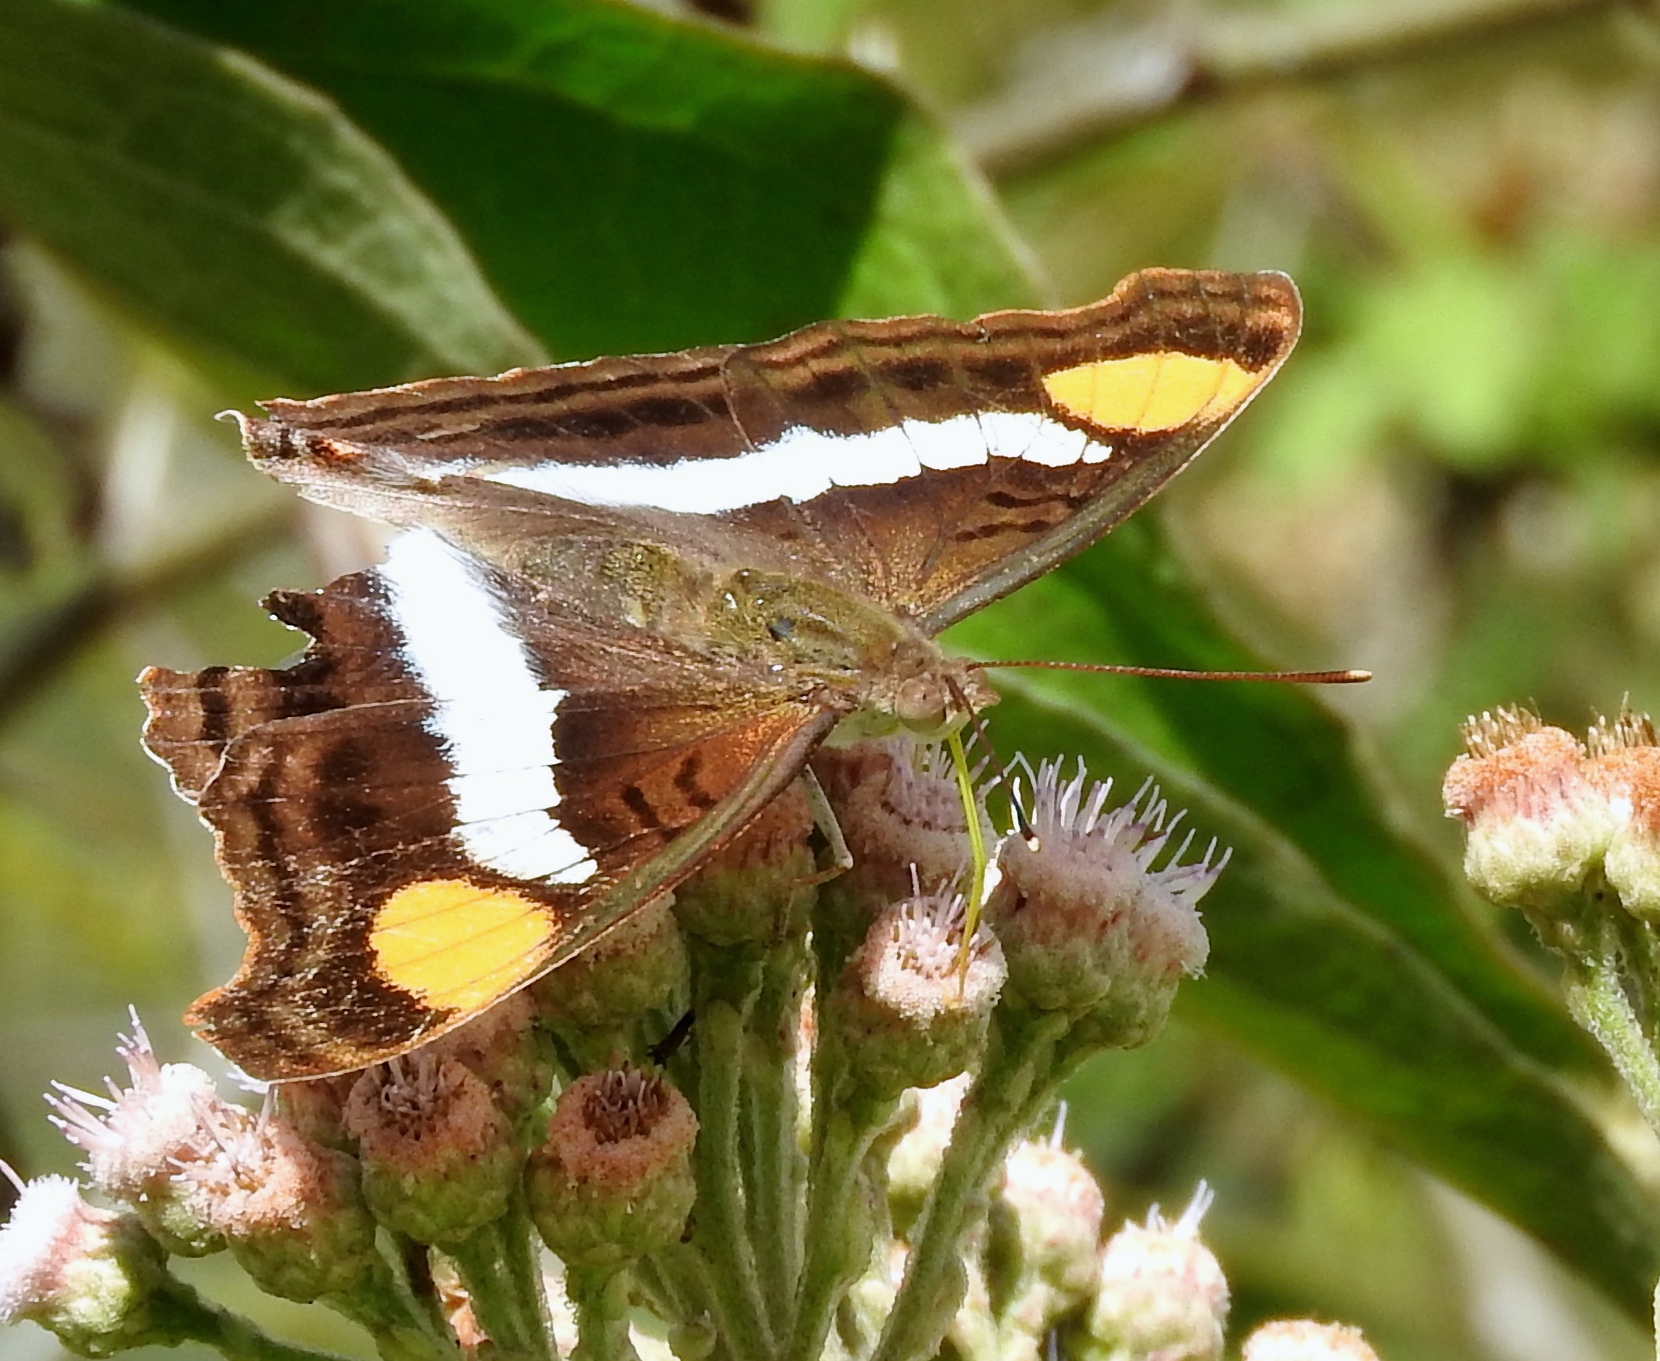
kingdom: Animalia
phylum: Arthropoda
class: Insecta
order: Lepidoptera
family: Nymphalidae
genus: Doxocopa
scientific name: Doxocopa laure
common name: Silver emperor
